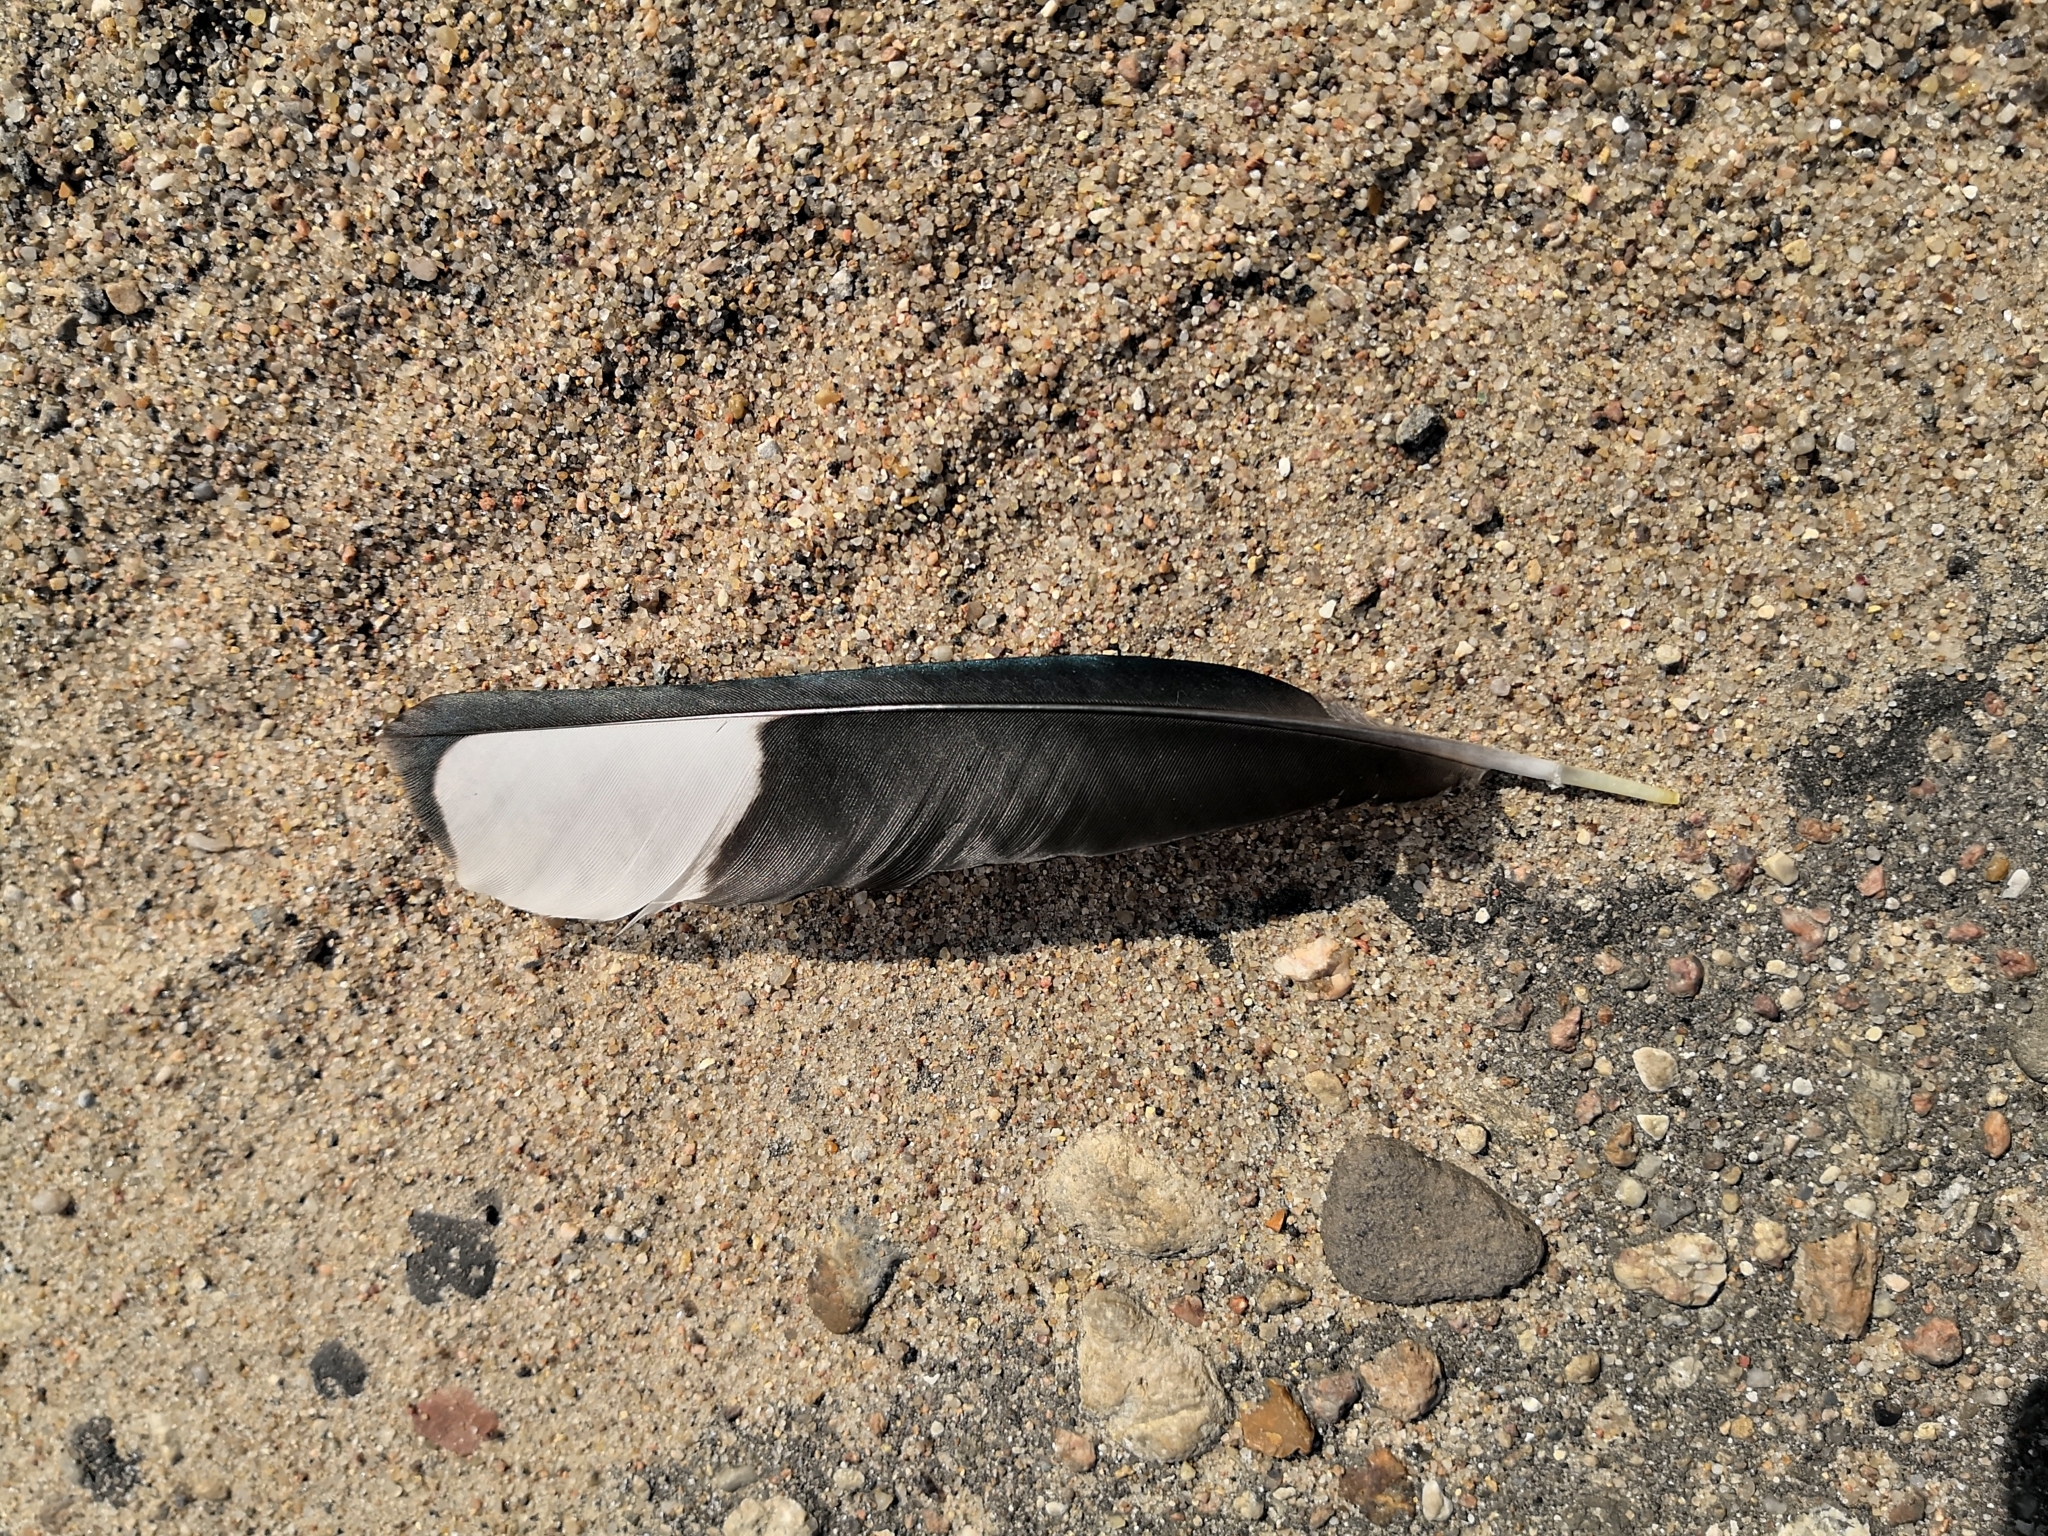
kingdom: Animalia
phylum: Chordata
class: Aves
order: Passeriformes
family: Corvidae
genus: Pica
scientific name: Pica pica
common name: Eurasian magpie
